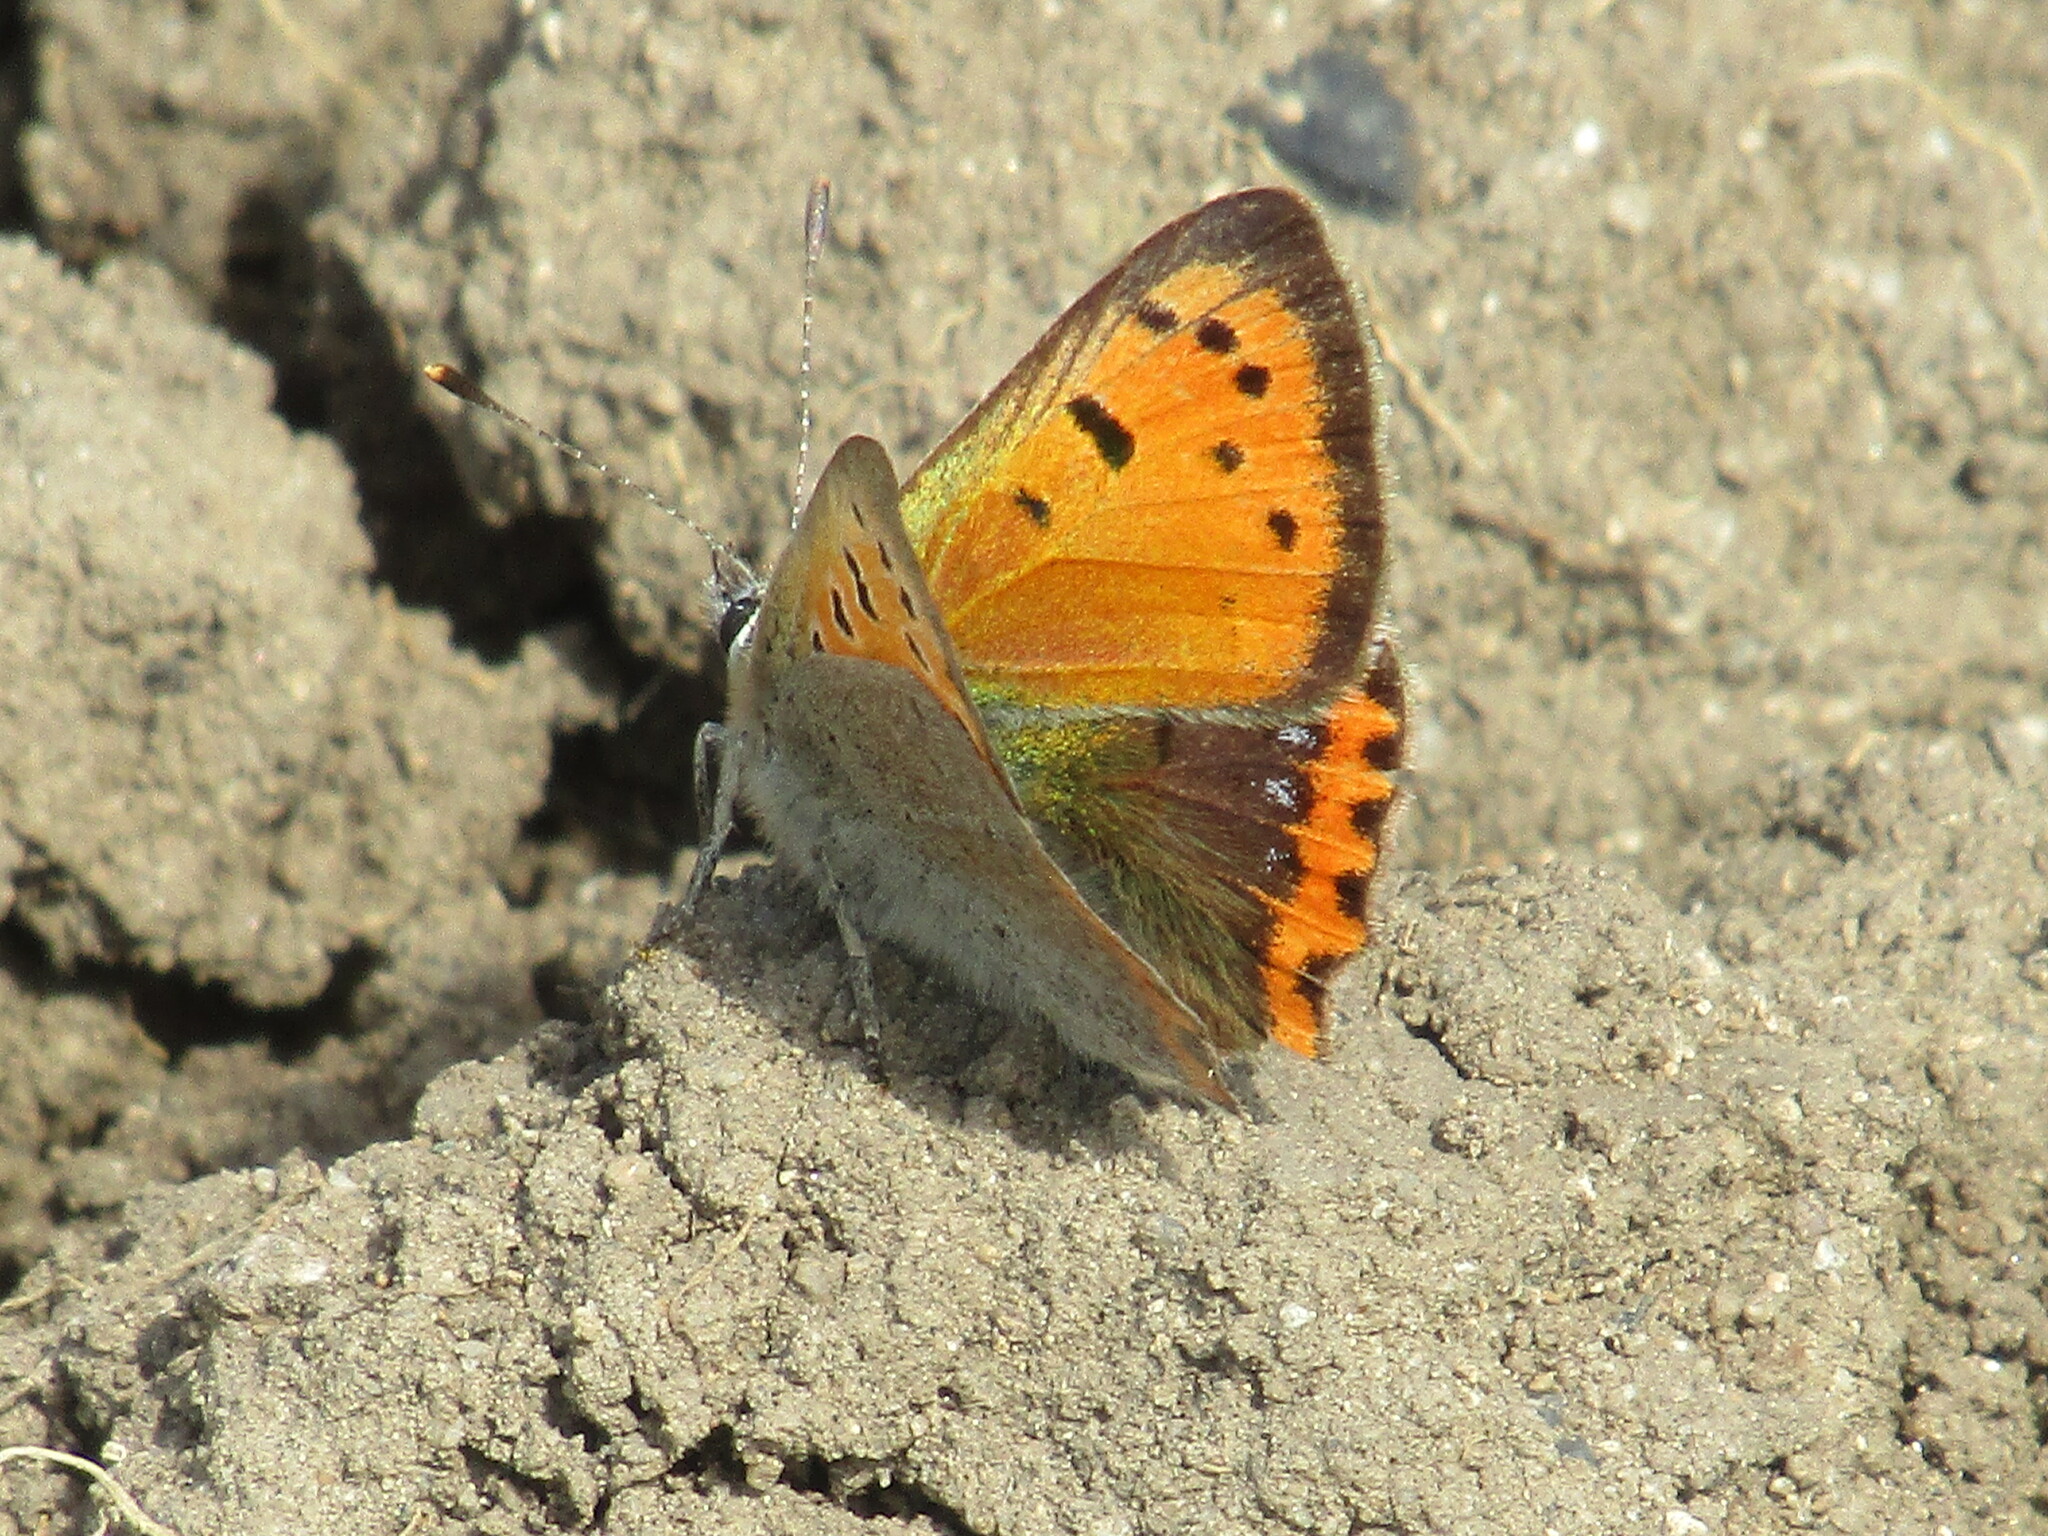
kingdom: Animalia
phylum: Arthropoda
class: Insecta
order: Lepidoptera
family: Lycaenidae
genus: Lycaena
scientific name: Lycaena phlaeas
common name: Small copper
